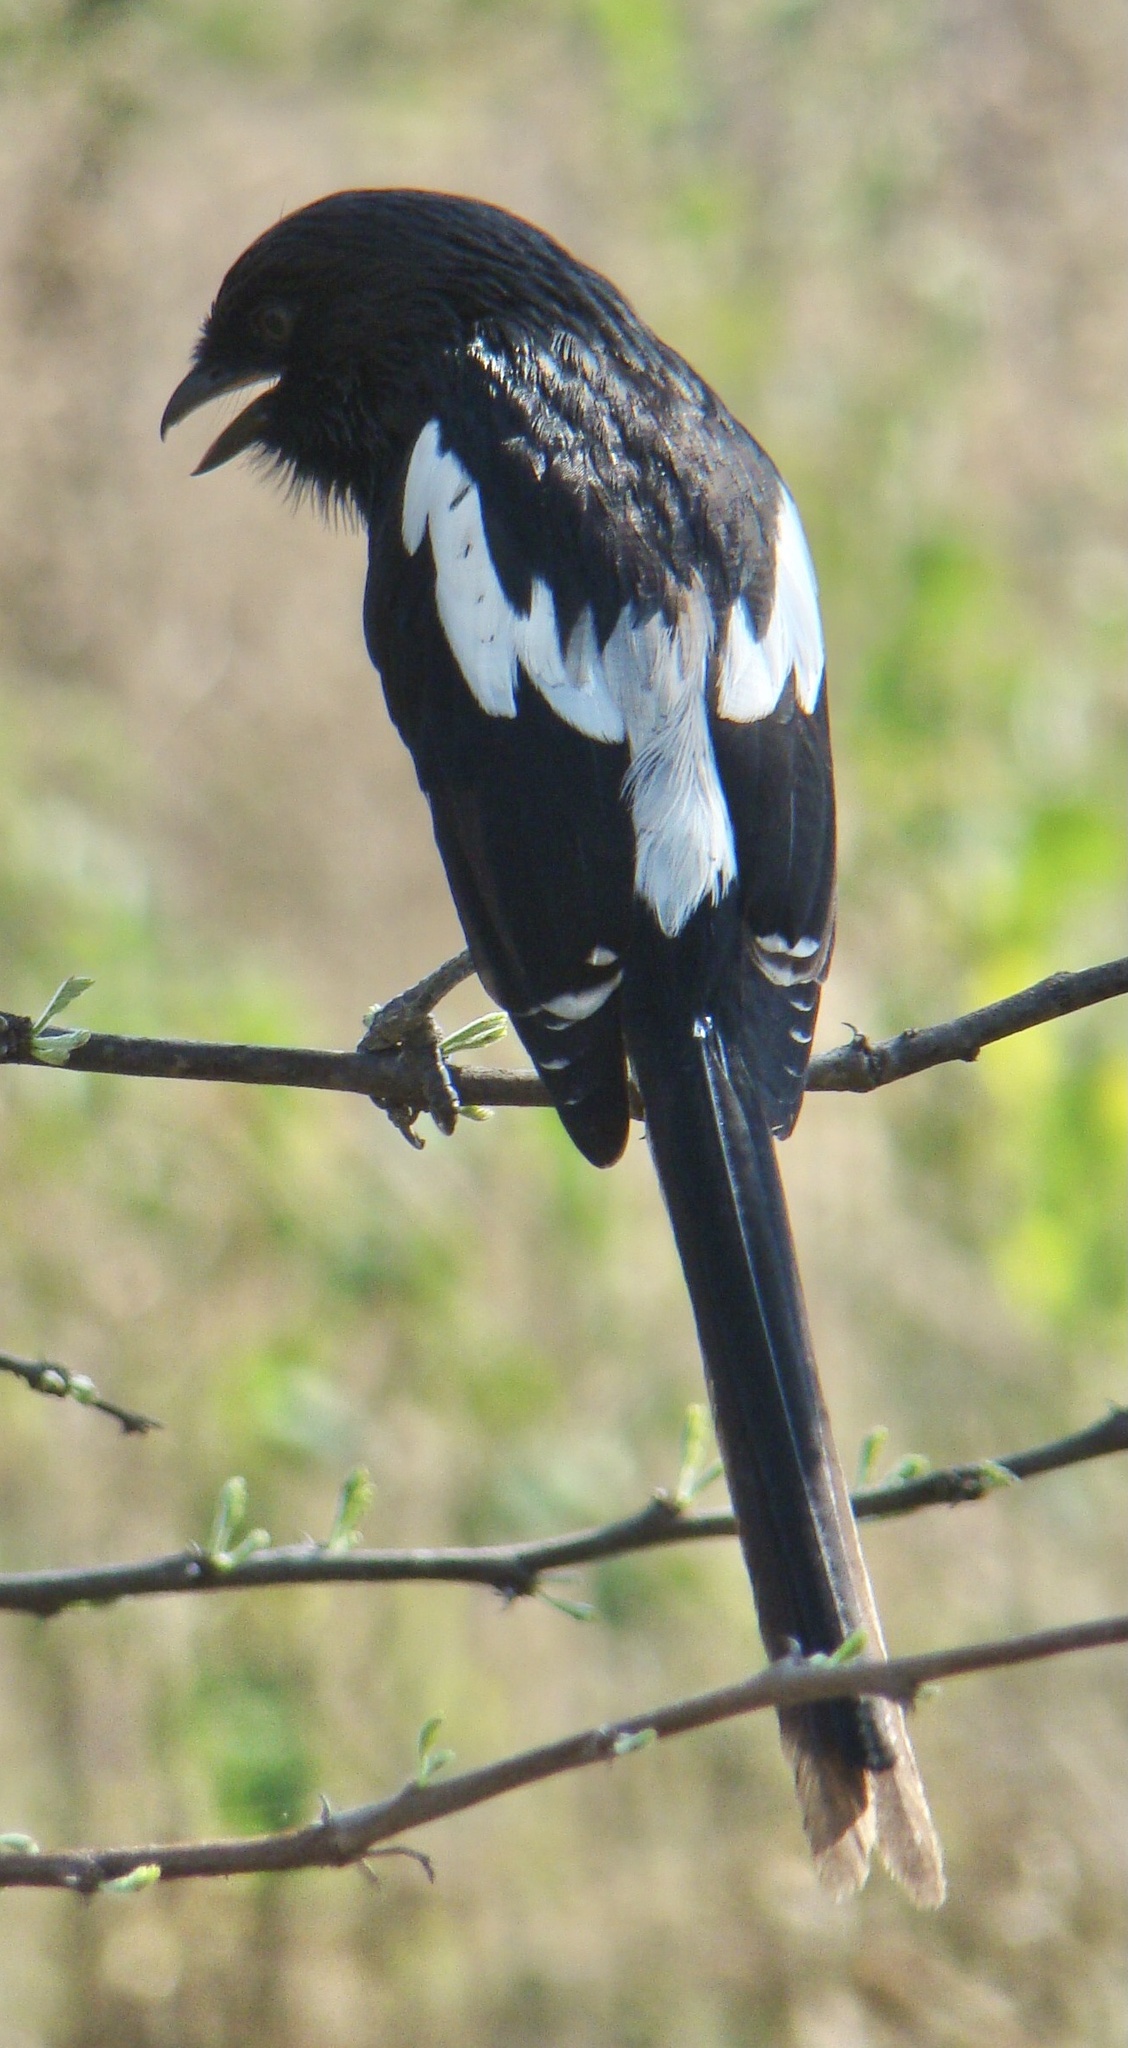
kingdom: Animalia
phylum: Chordata
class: Aves
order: Passeriformes
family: Laniidae
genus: Urolestes
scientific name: Urolestes melanoleucus
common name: Magpie shrike
